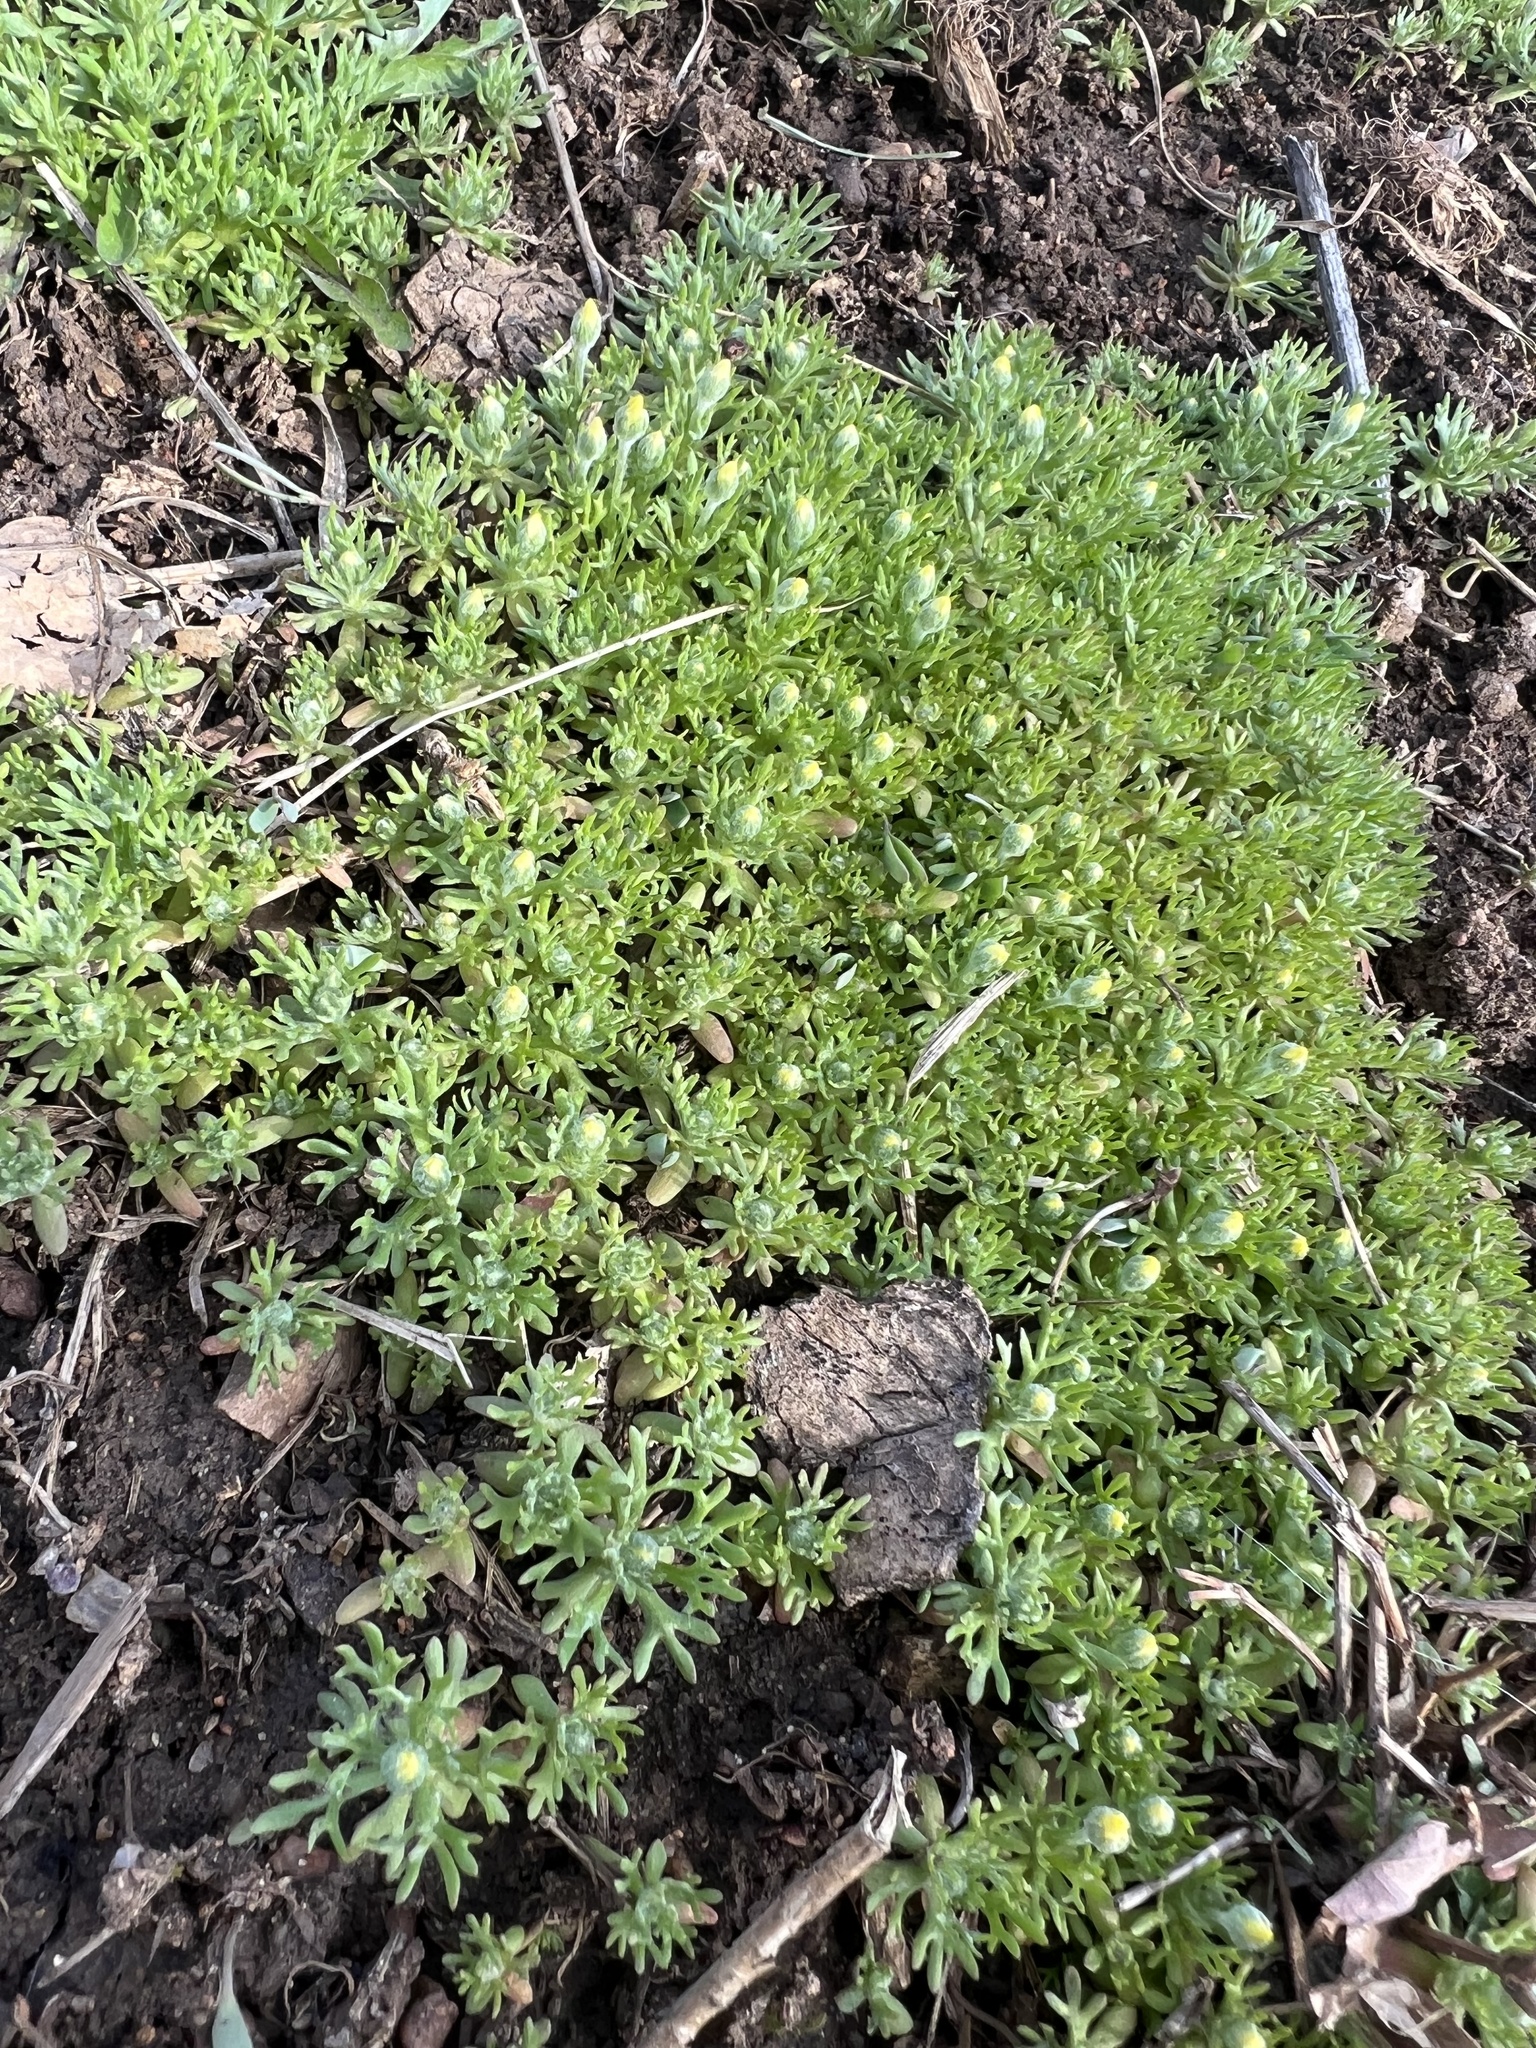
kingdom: Plantae
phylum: Tracheophyta
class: Magnoliopsida
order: Ranunculales
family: Ranunculaceae
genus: Ceratocephala
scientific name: Ceratocephala orthoceras
